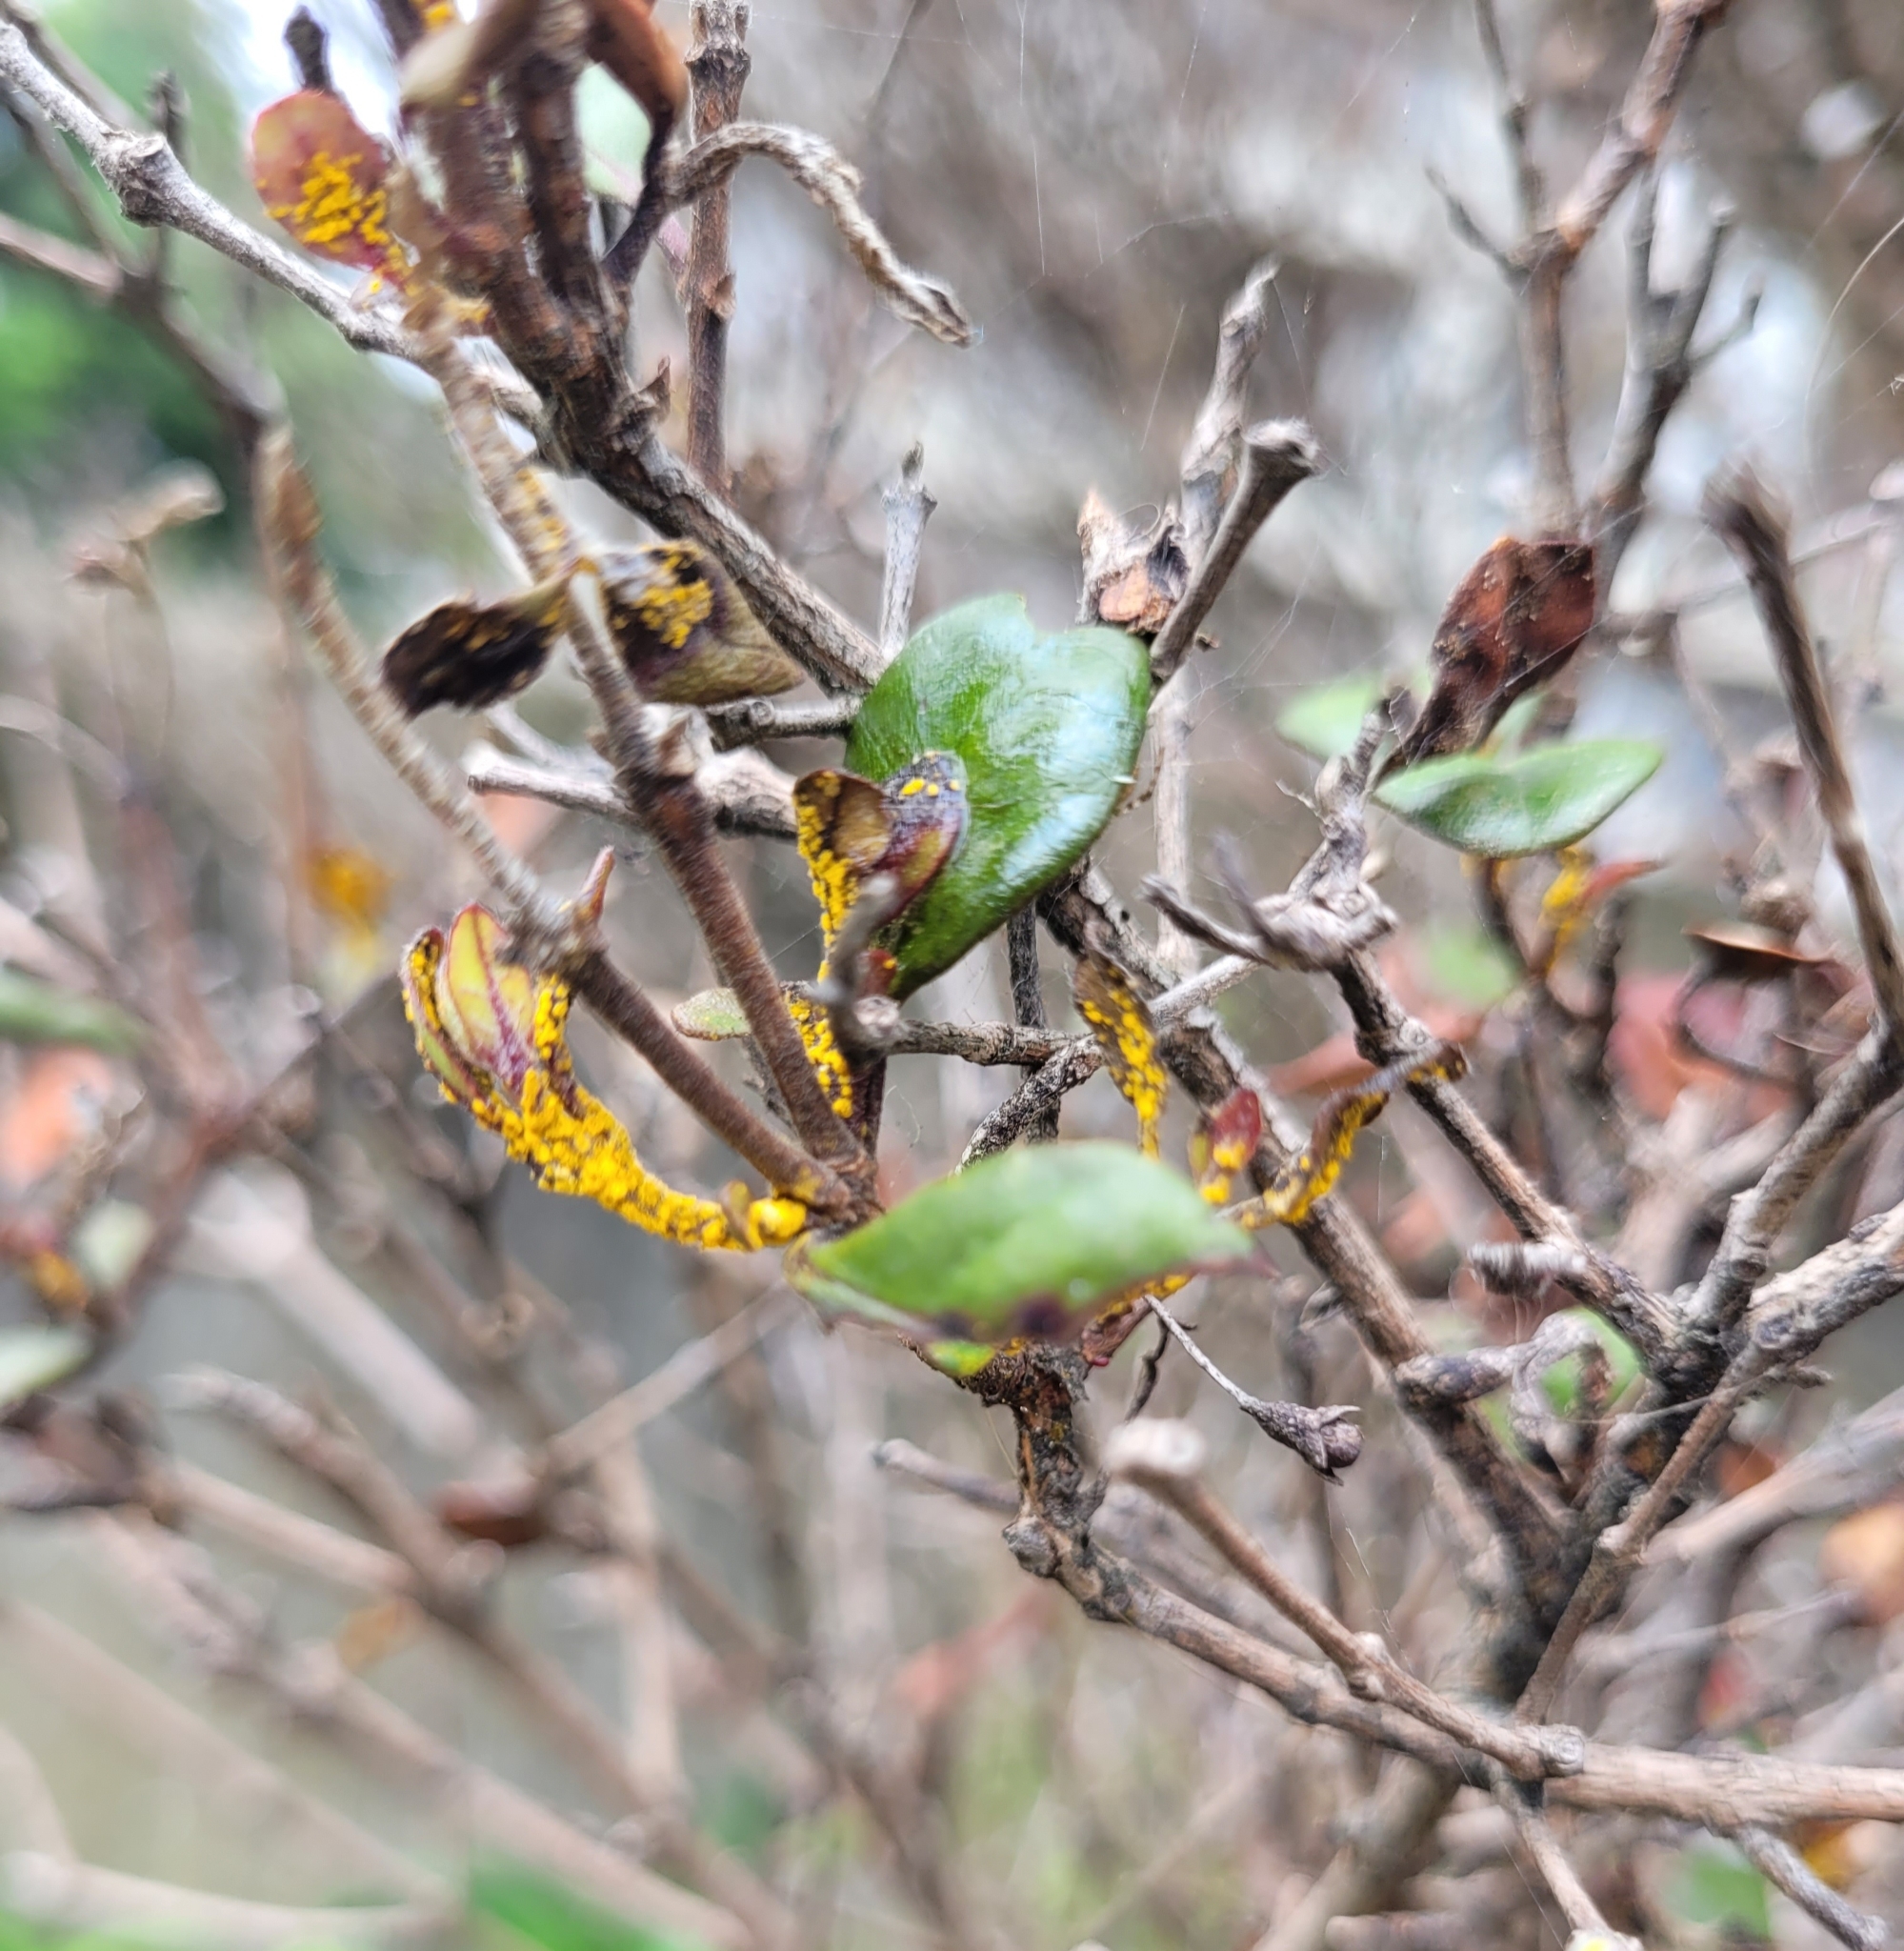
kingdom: Fungi
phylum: Basidiomycota
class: Pucciniomycetes
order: Pucciniales
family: Sphaerophragmiaceae
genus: Austropuccinia
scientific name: Austropuccinia psidii
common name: Myrtle rust
